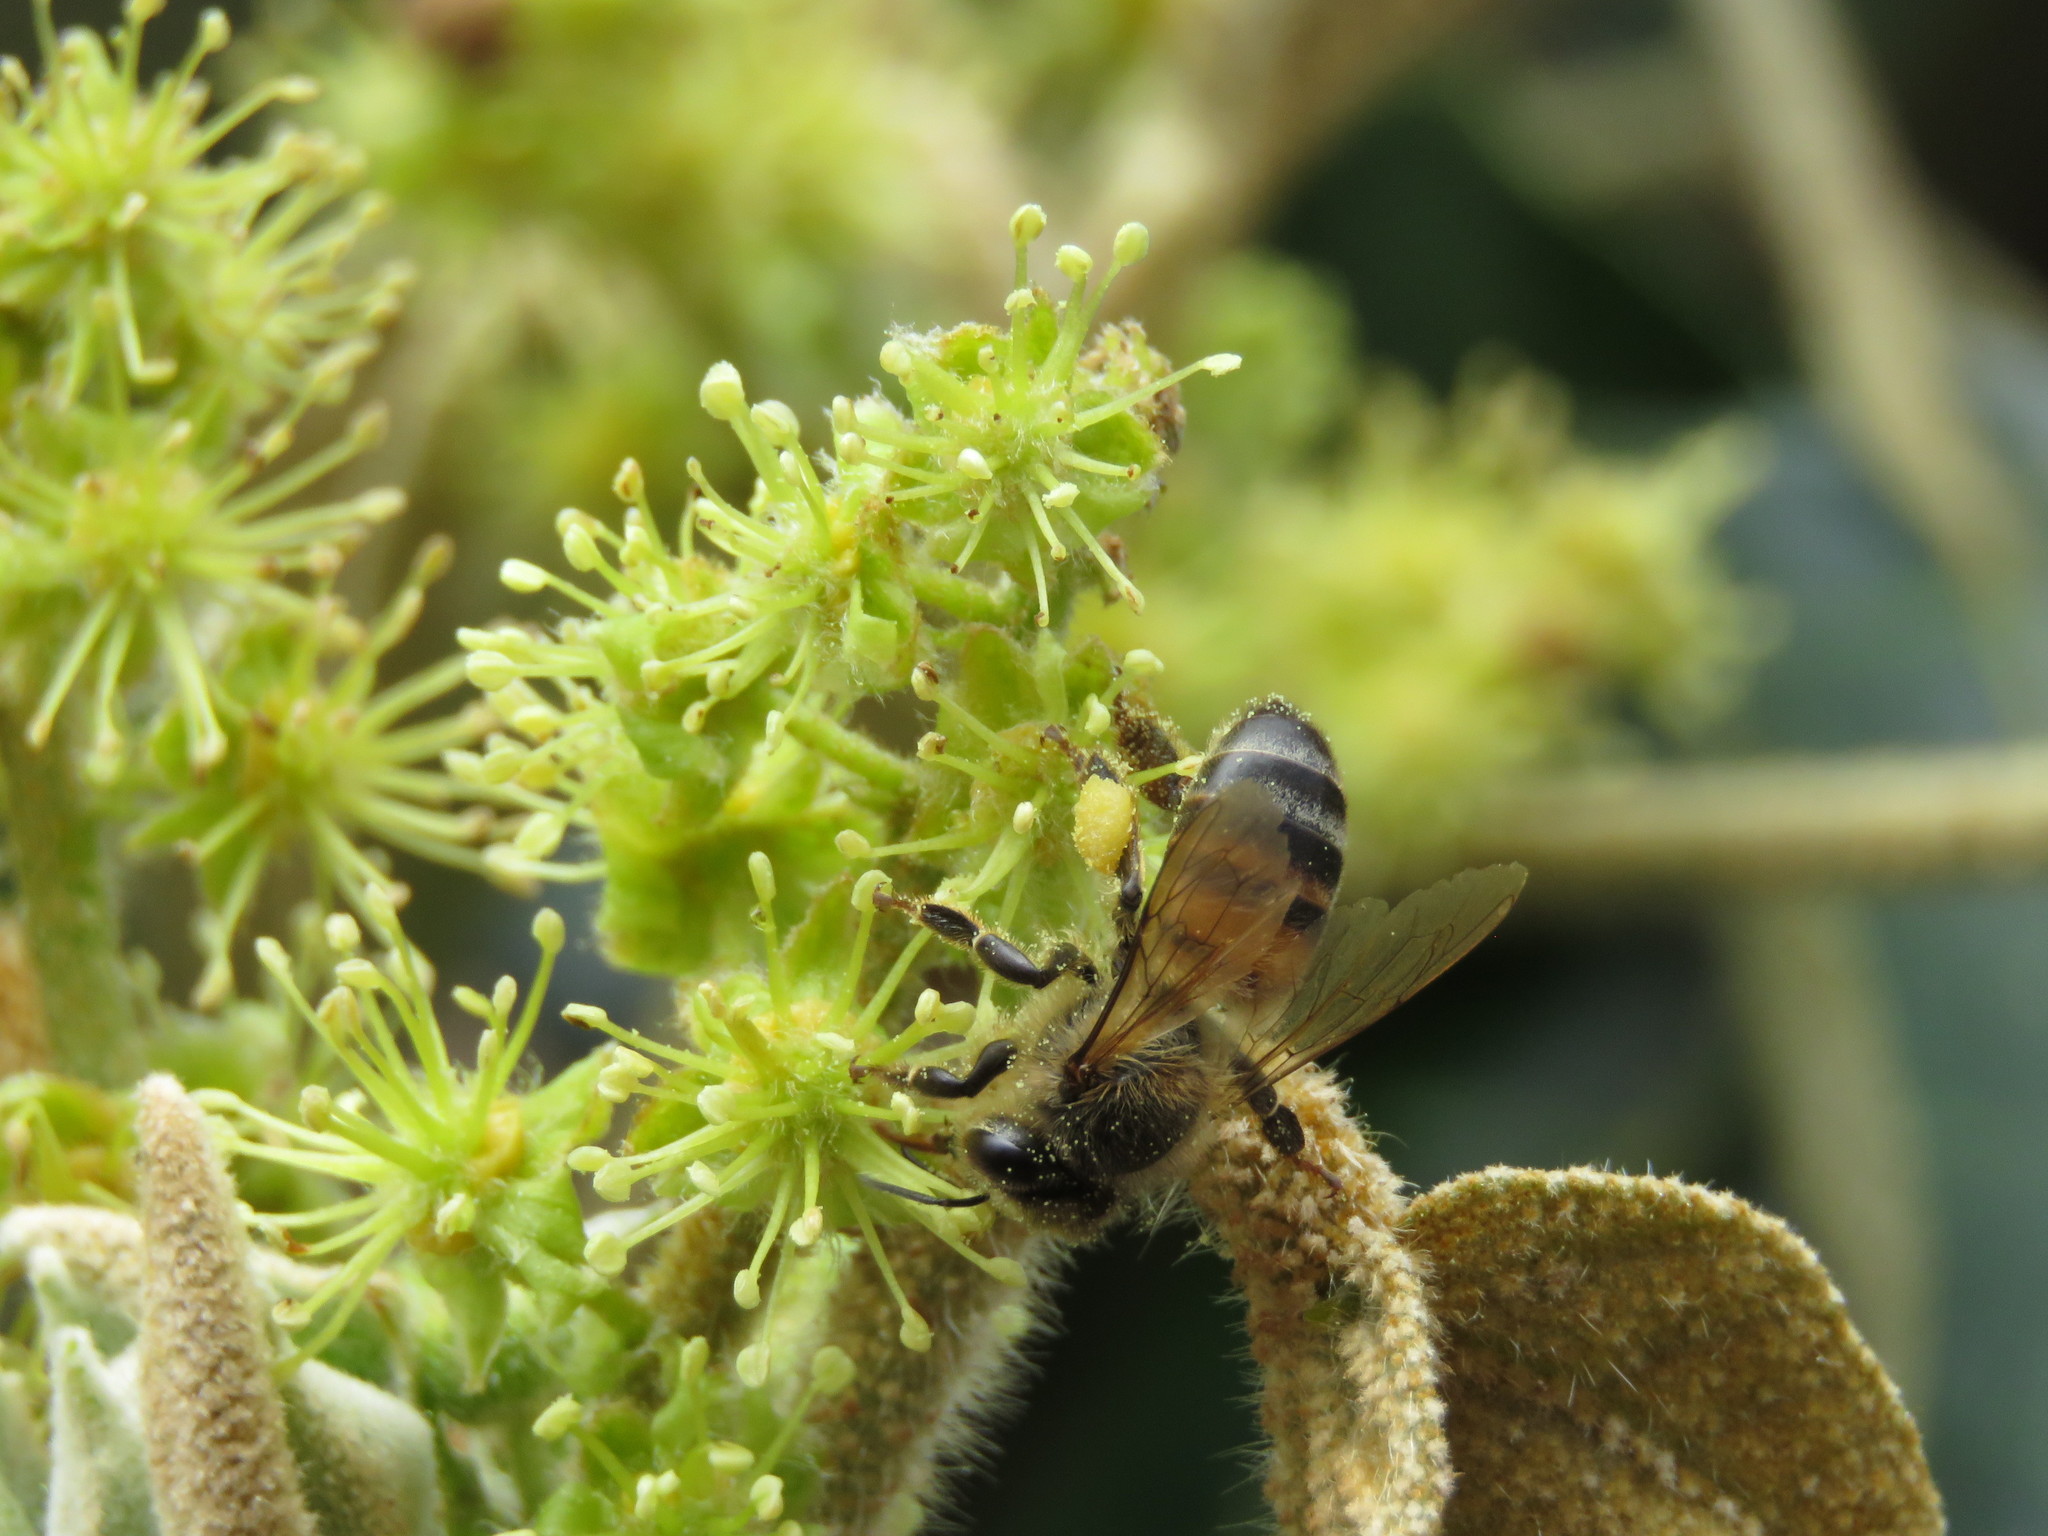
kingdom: Animalia
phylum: Arthropoda
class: Insecta
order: Hymenoptera
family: Apidae
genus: Apis
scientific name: Apis mellifera
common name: Honey bee
